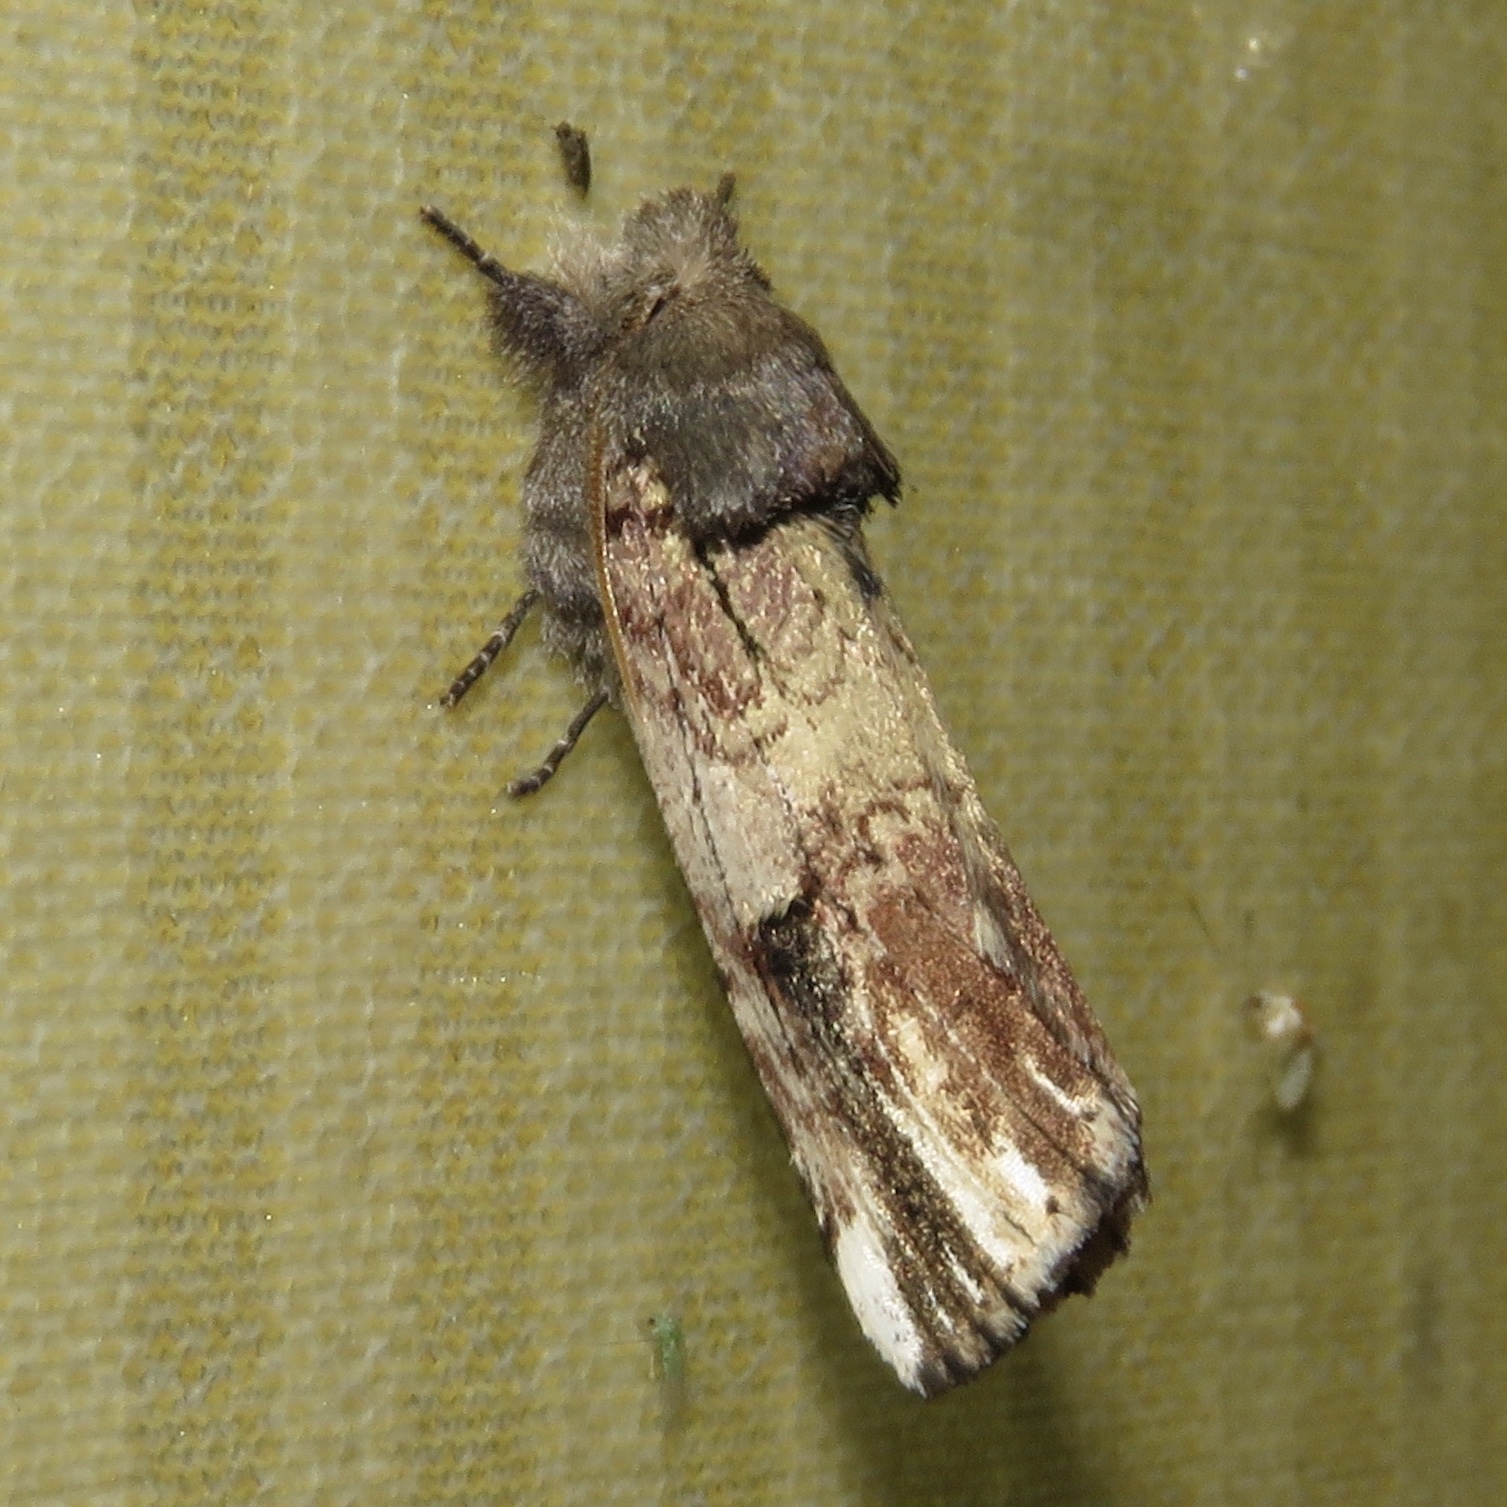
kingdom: Animalia
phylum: Arthropoda
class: Insecta
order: Lepidoptera
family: Notodontidae
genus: Schizura
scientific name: Schizura badia
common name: Chestnut schizura
